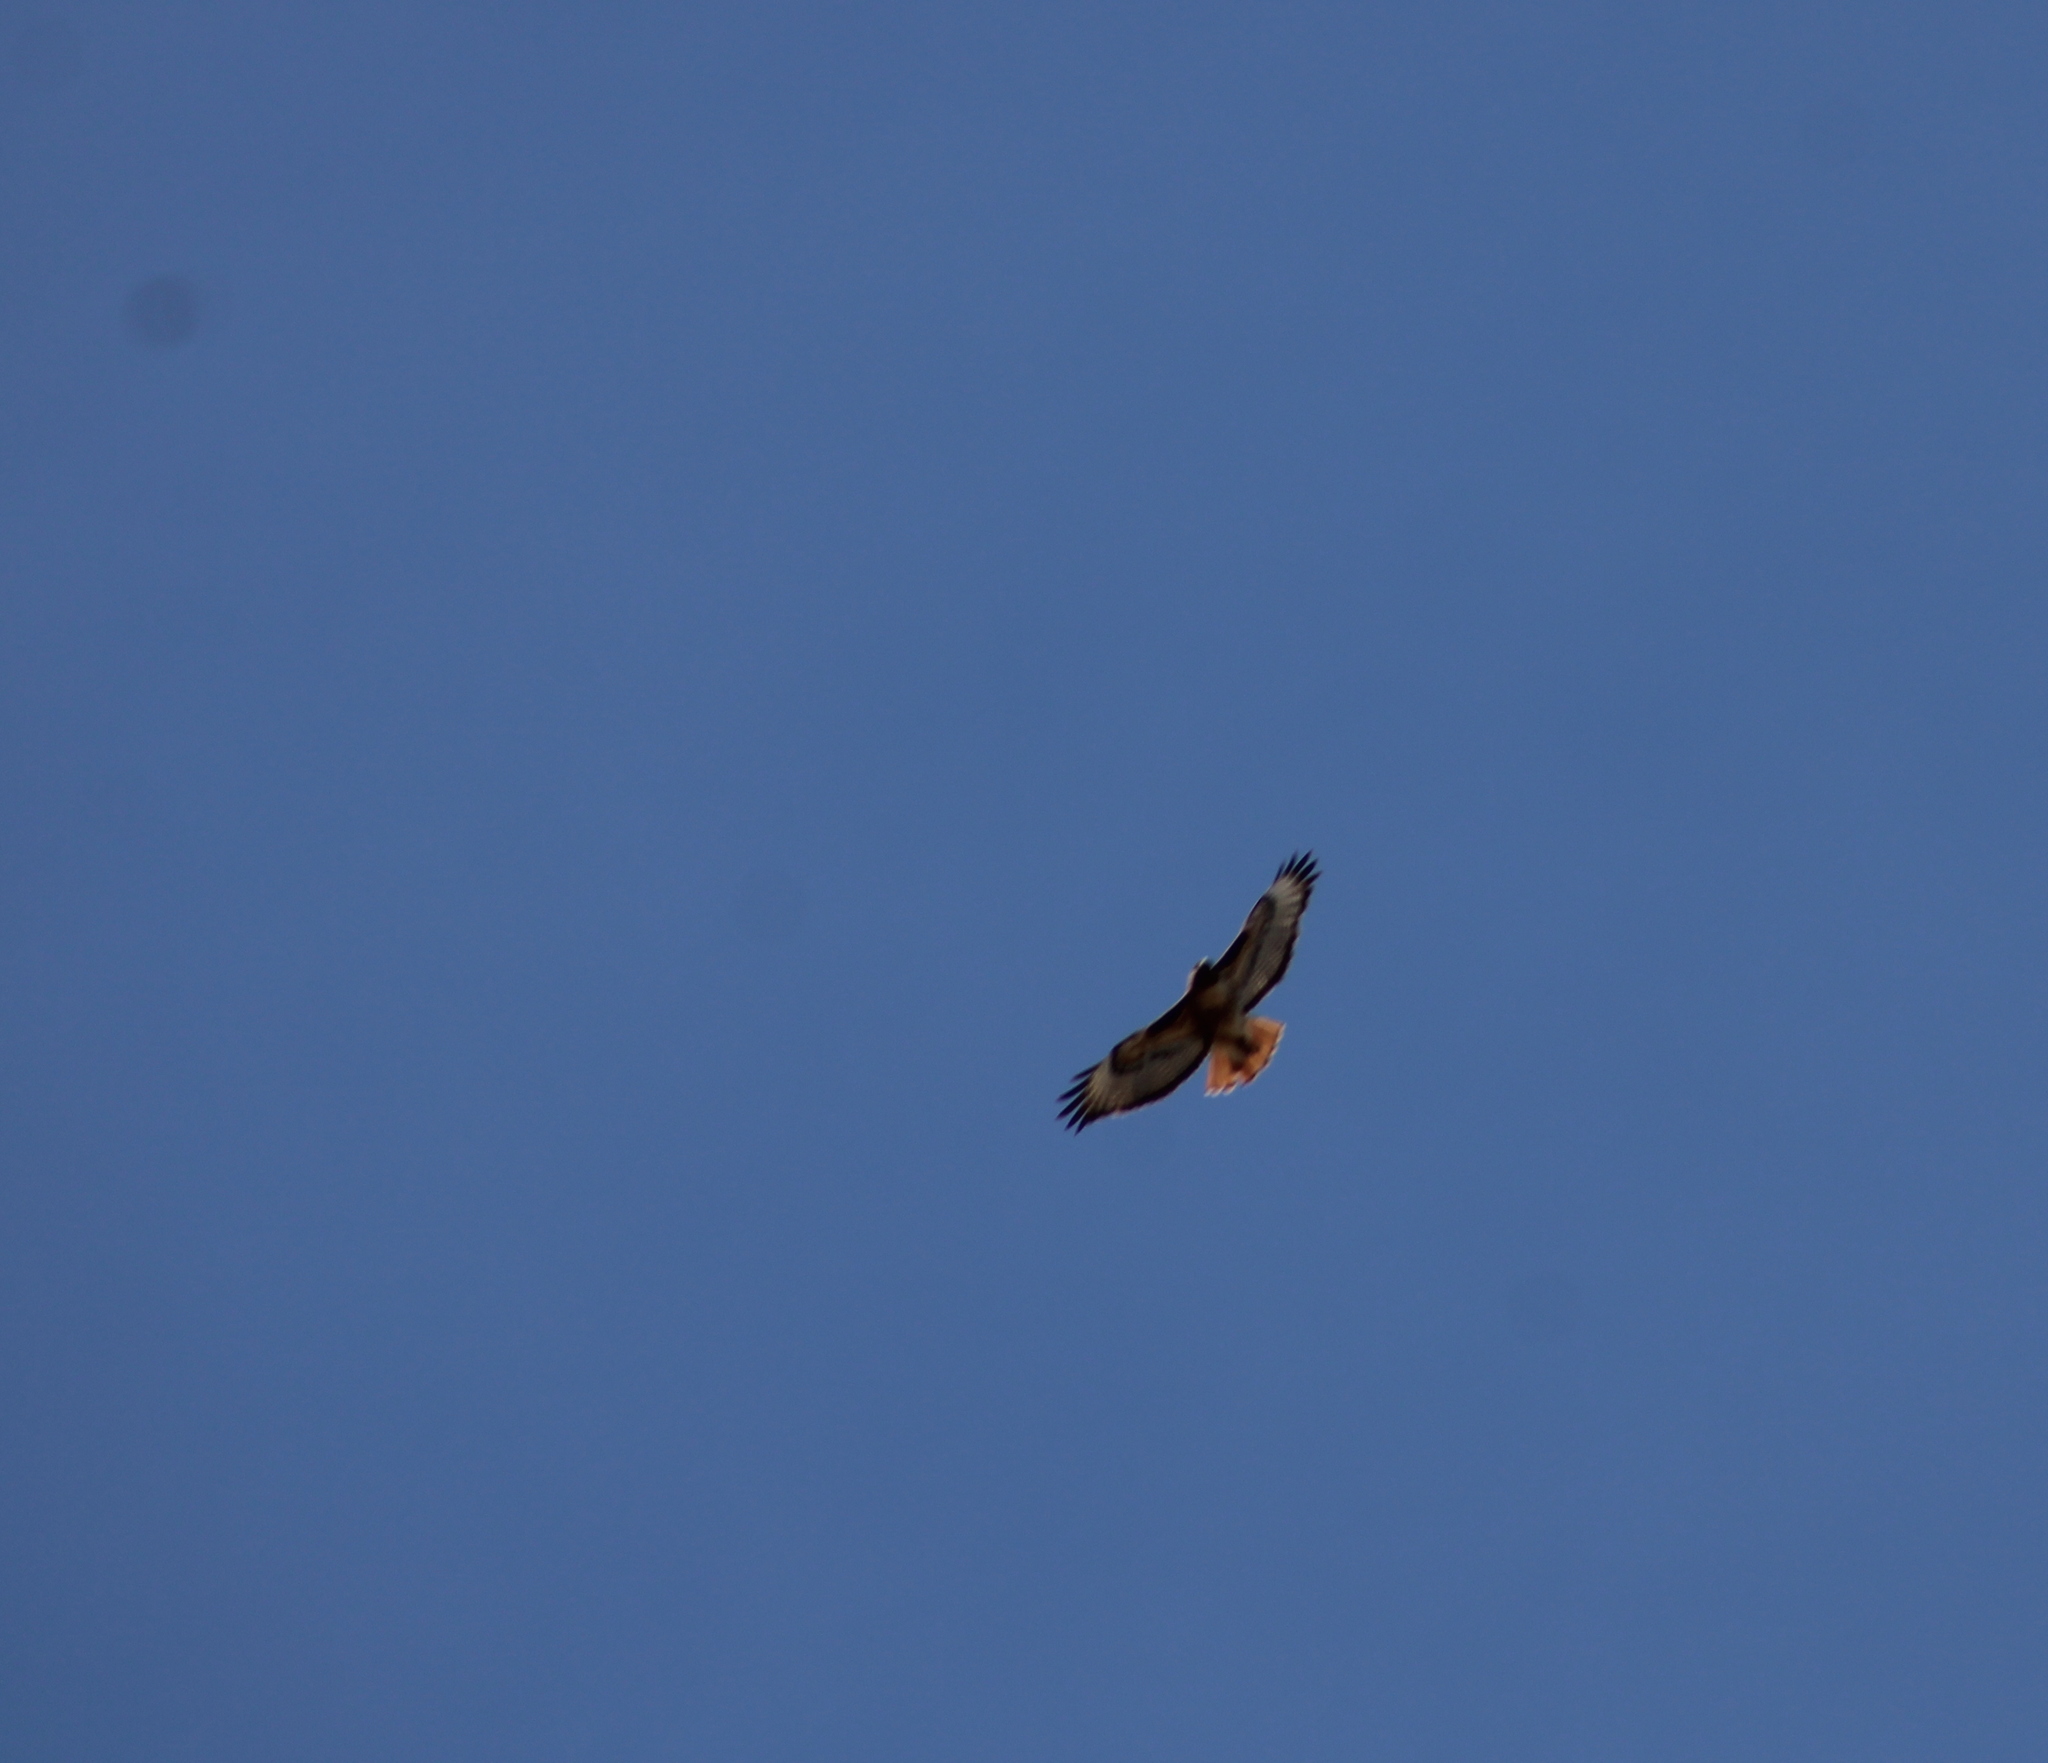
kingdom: Animalia
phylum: Chordata
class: Aves
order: Accipitriformes
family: Accipitridae
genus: Buteo
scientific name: Buteo jamaicensis
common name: Red-tailed hawk
